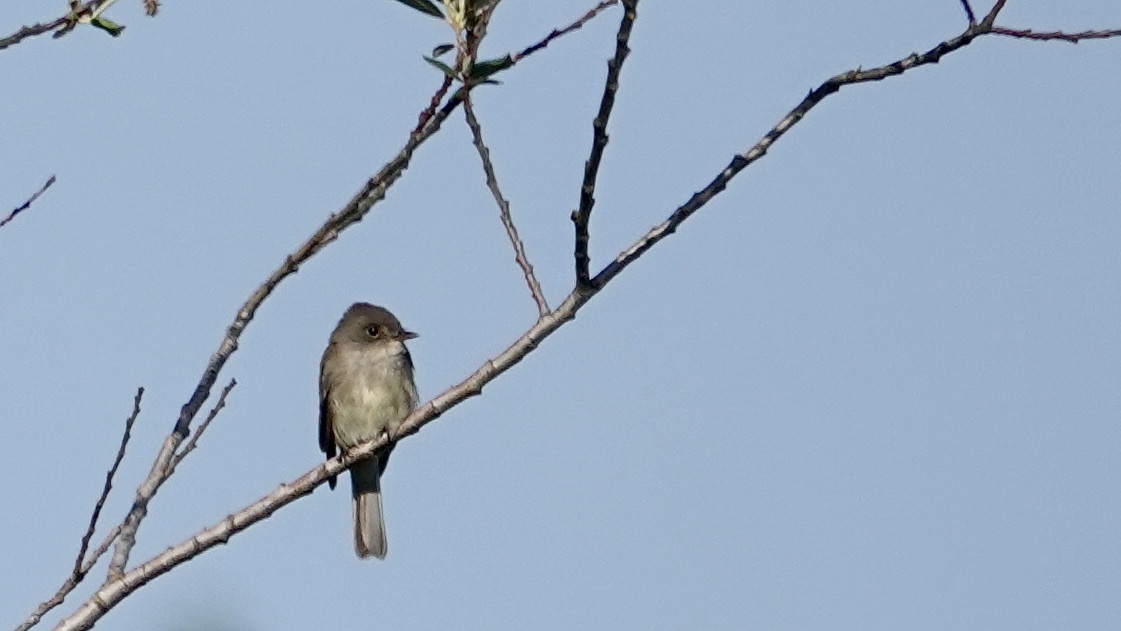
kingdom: Animalia
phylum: Chordata
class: Aves
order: Passeriformes
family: Tyrannidae
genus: Empidonax
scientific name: Empidonax traillii
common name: Willow flycatcher
